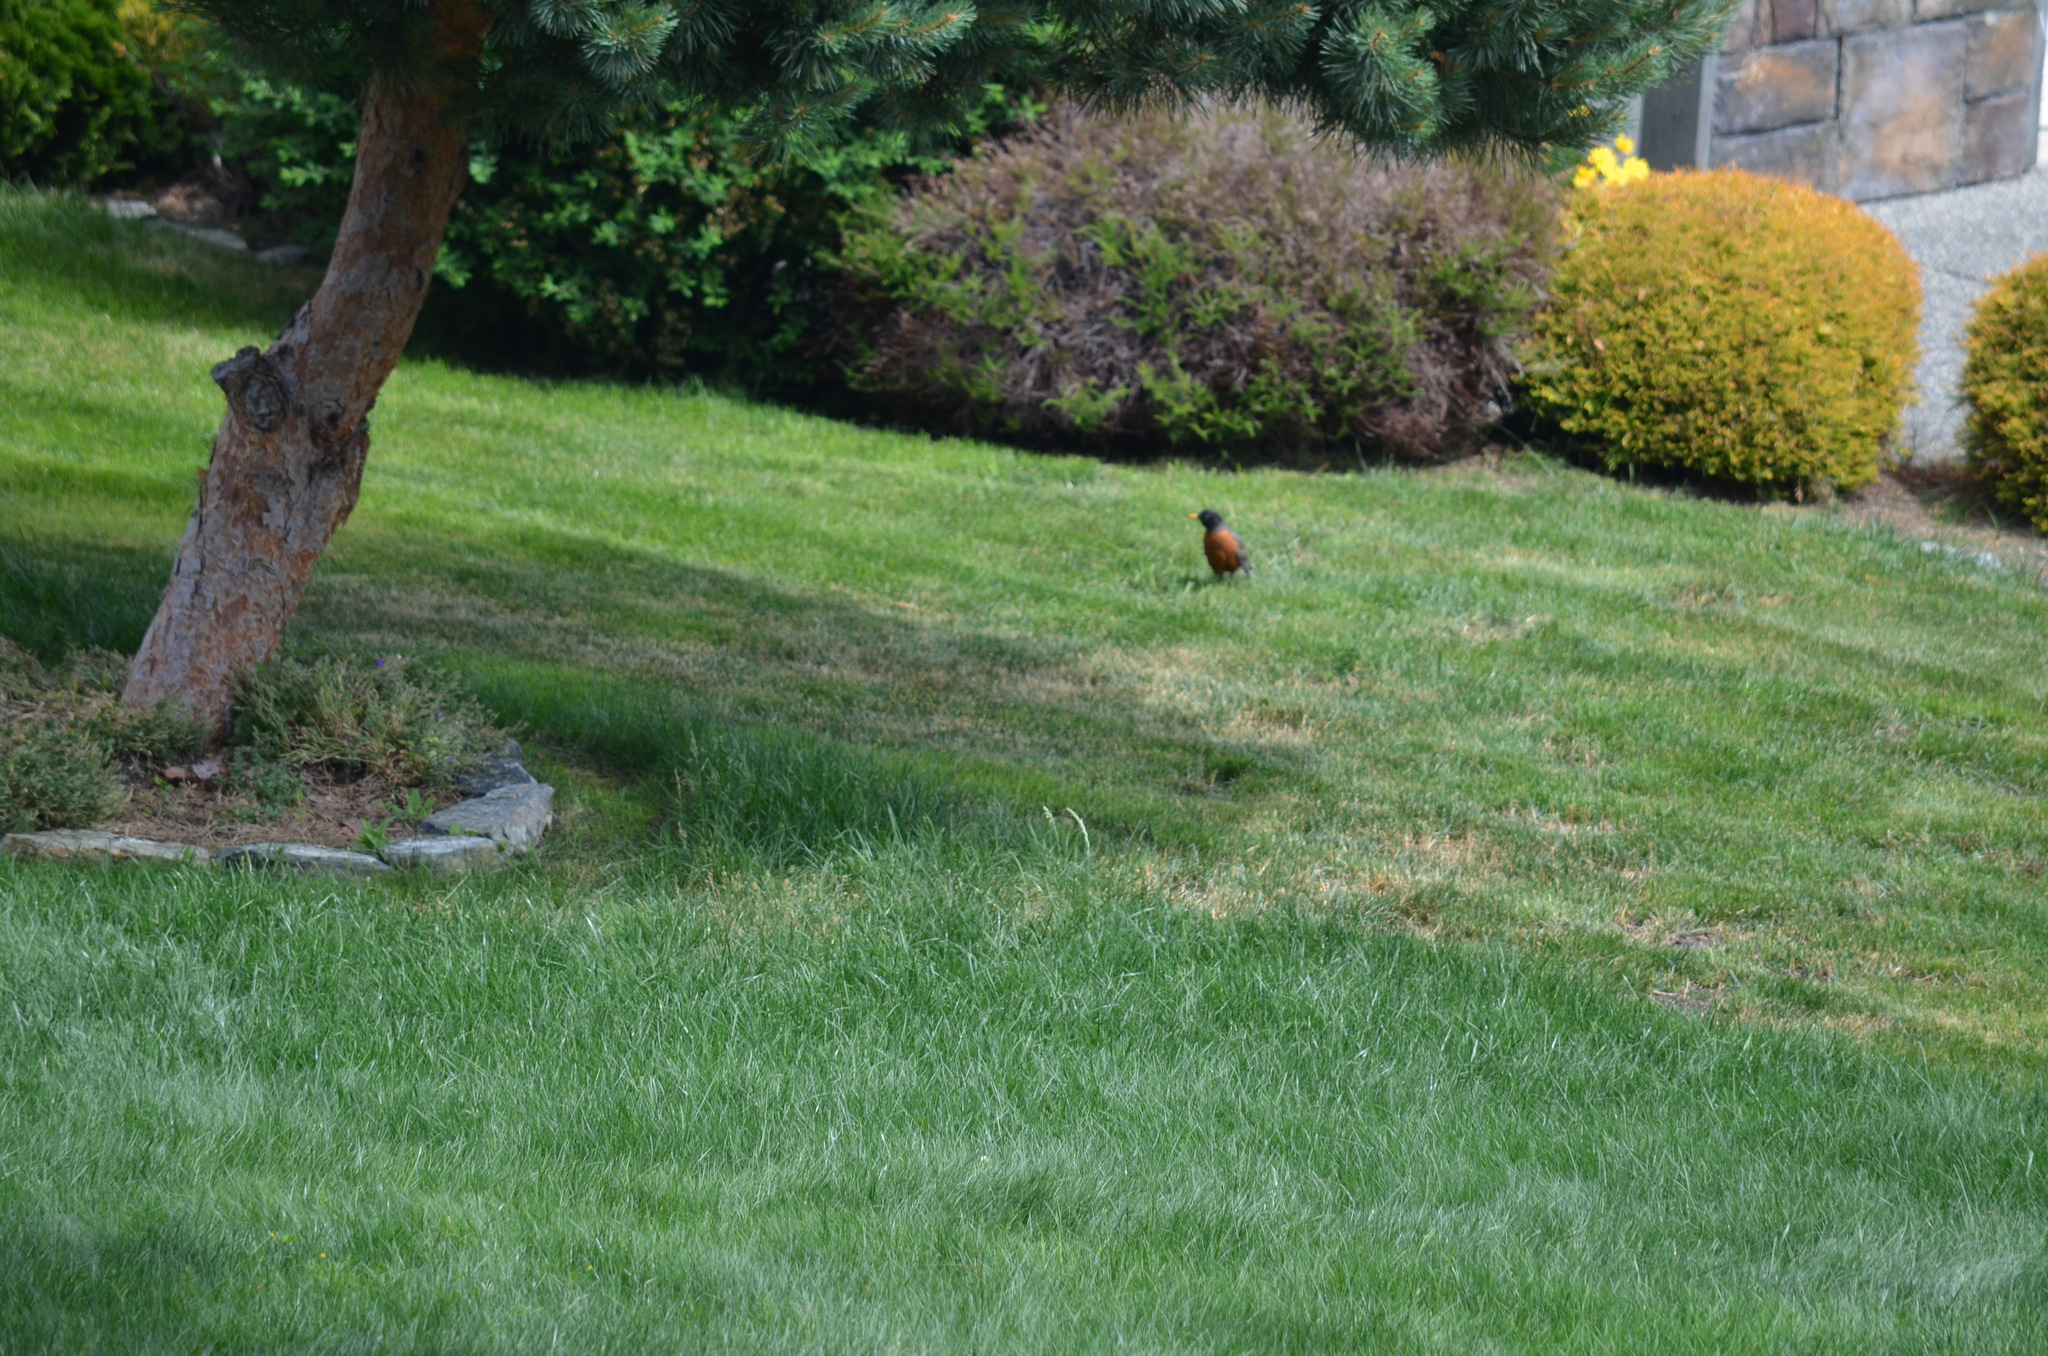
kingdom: Animalia
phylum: Chordata
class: Aves
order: Passeriformes
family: Turdidae
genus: Turdus
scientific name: Turdus migratorius
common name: American robin
